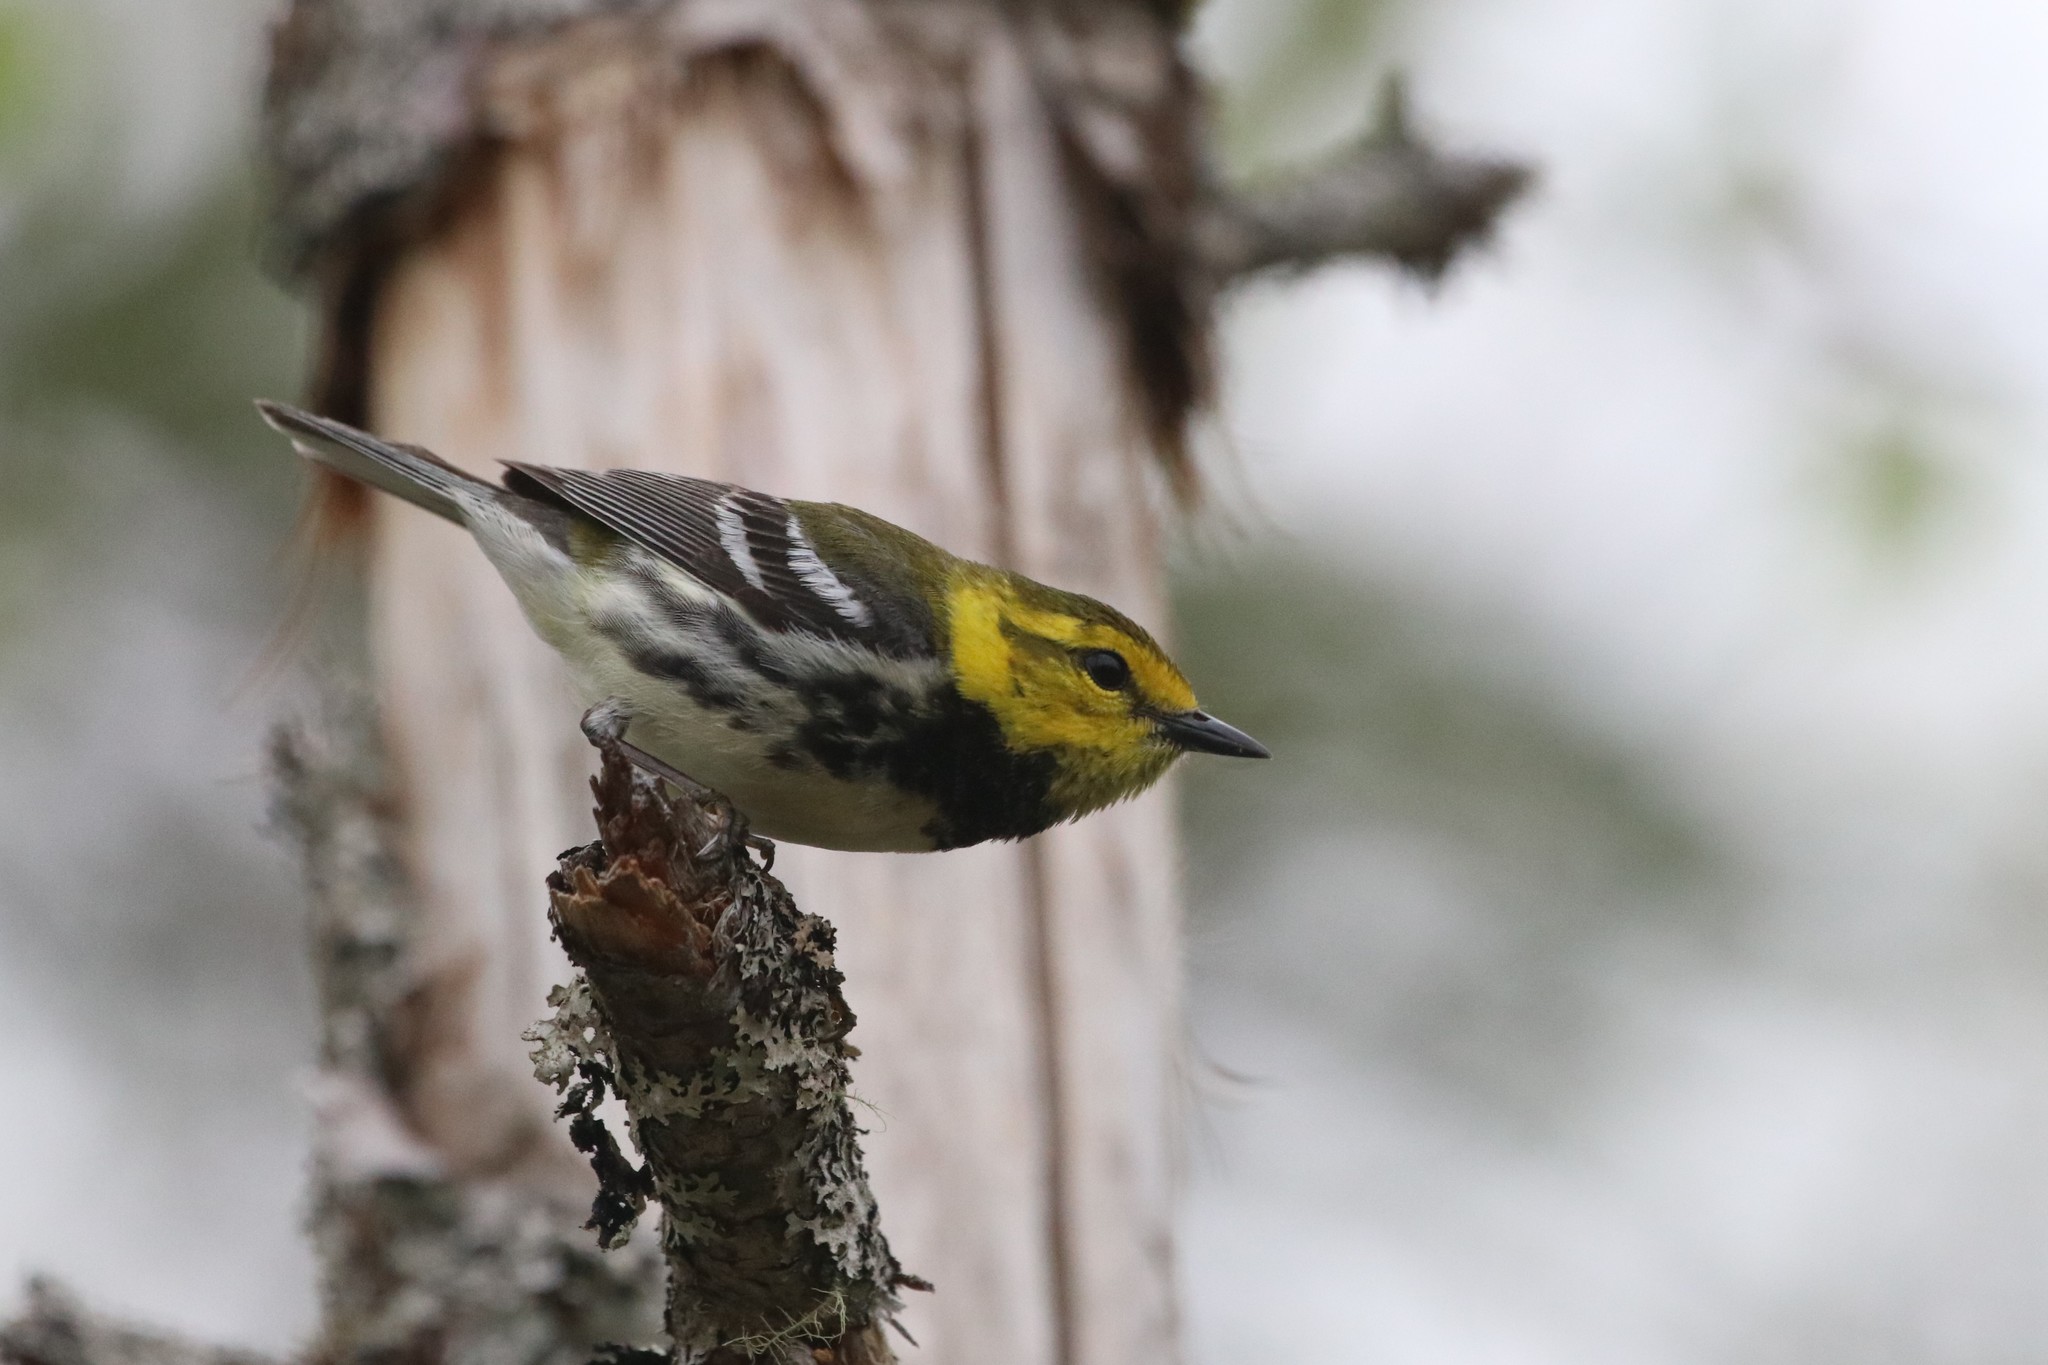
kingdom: Animalia
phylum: Chordata
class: Aves
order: Passeriformes
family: Parulidae
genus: Setophaga
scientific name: Setophaga virens
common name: Black-throated green warbler
